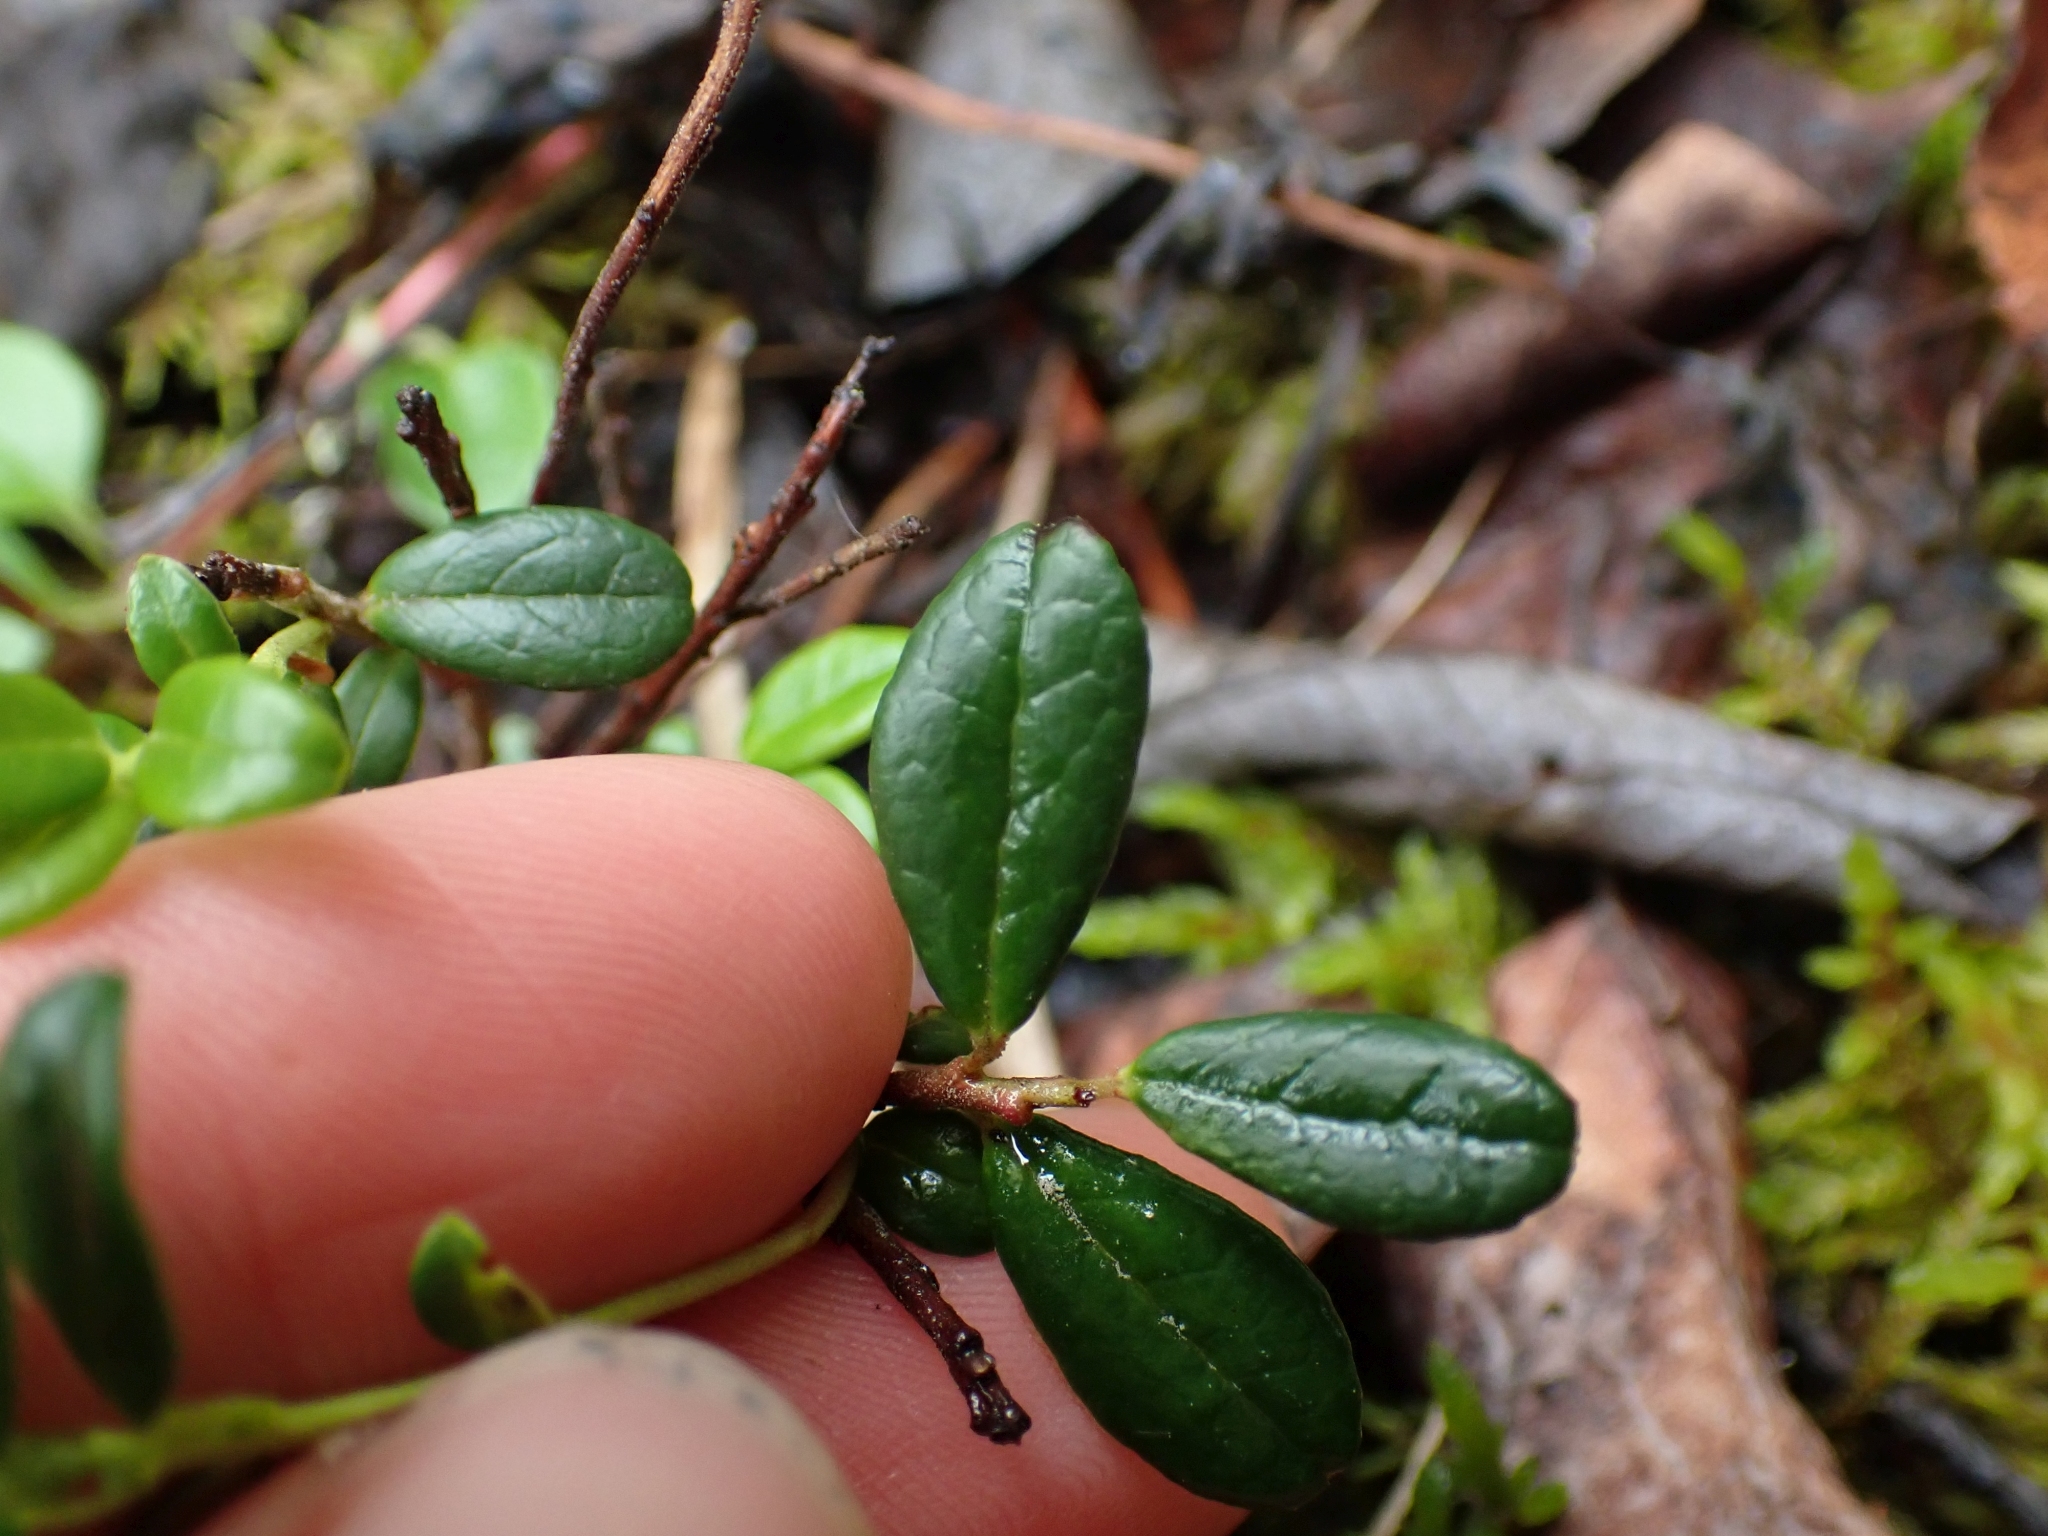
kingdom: Plantae
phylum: Tracheophyta
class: Magnoliopsida
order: Ericales
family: Ericaceae
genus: Vaccinium
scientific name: Vaccinium vitis-idaea
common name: Cowberry
